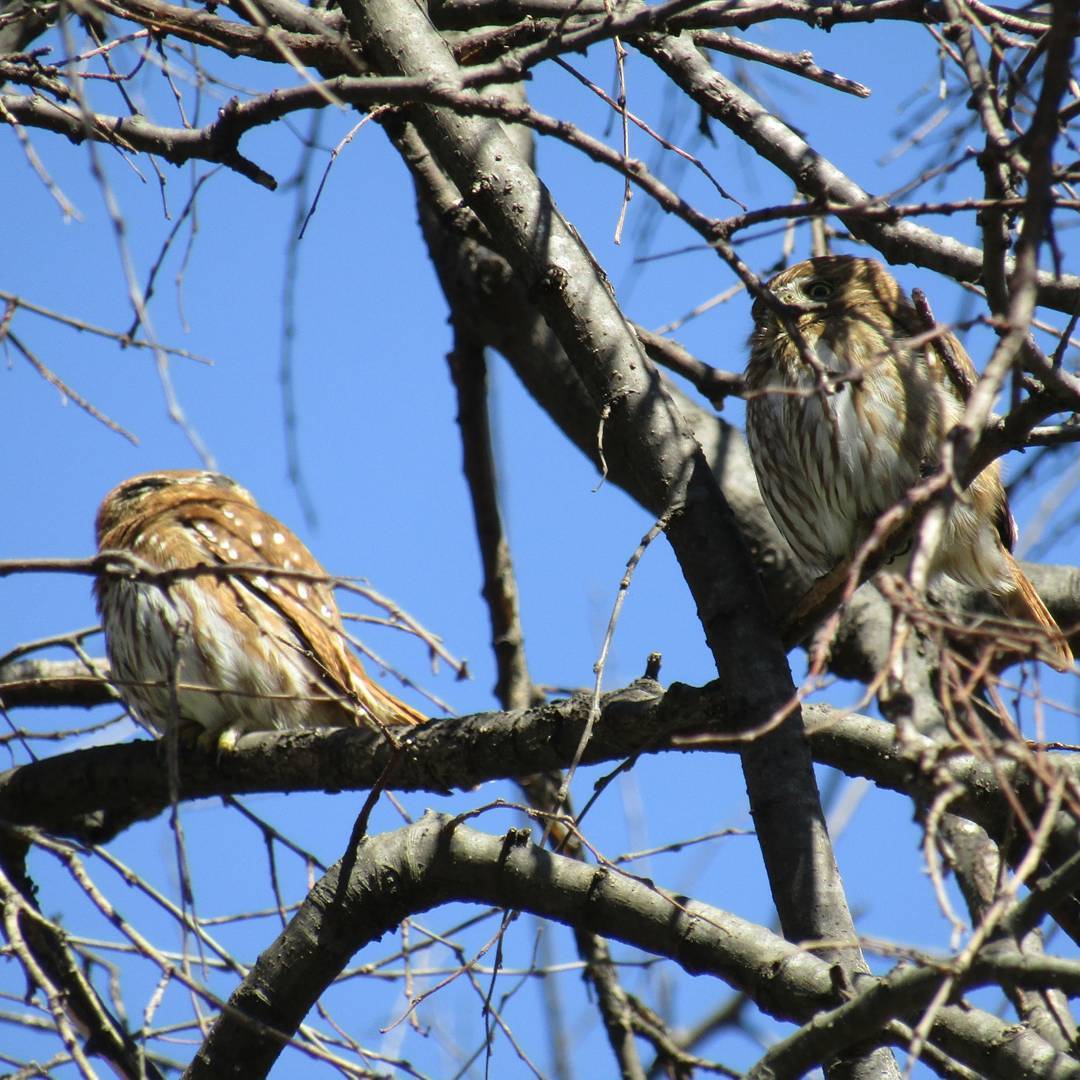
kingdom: Animalia
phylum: Chordata
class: Aves
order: Strigiformes
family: Strigidae
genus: Glaucidium
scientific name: Glaucidium brasilianum
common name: Ferruginous pygmy-owl
